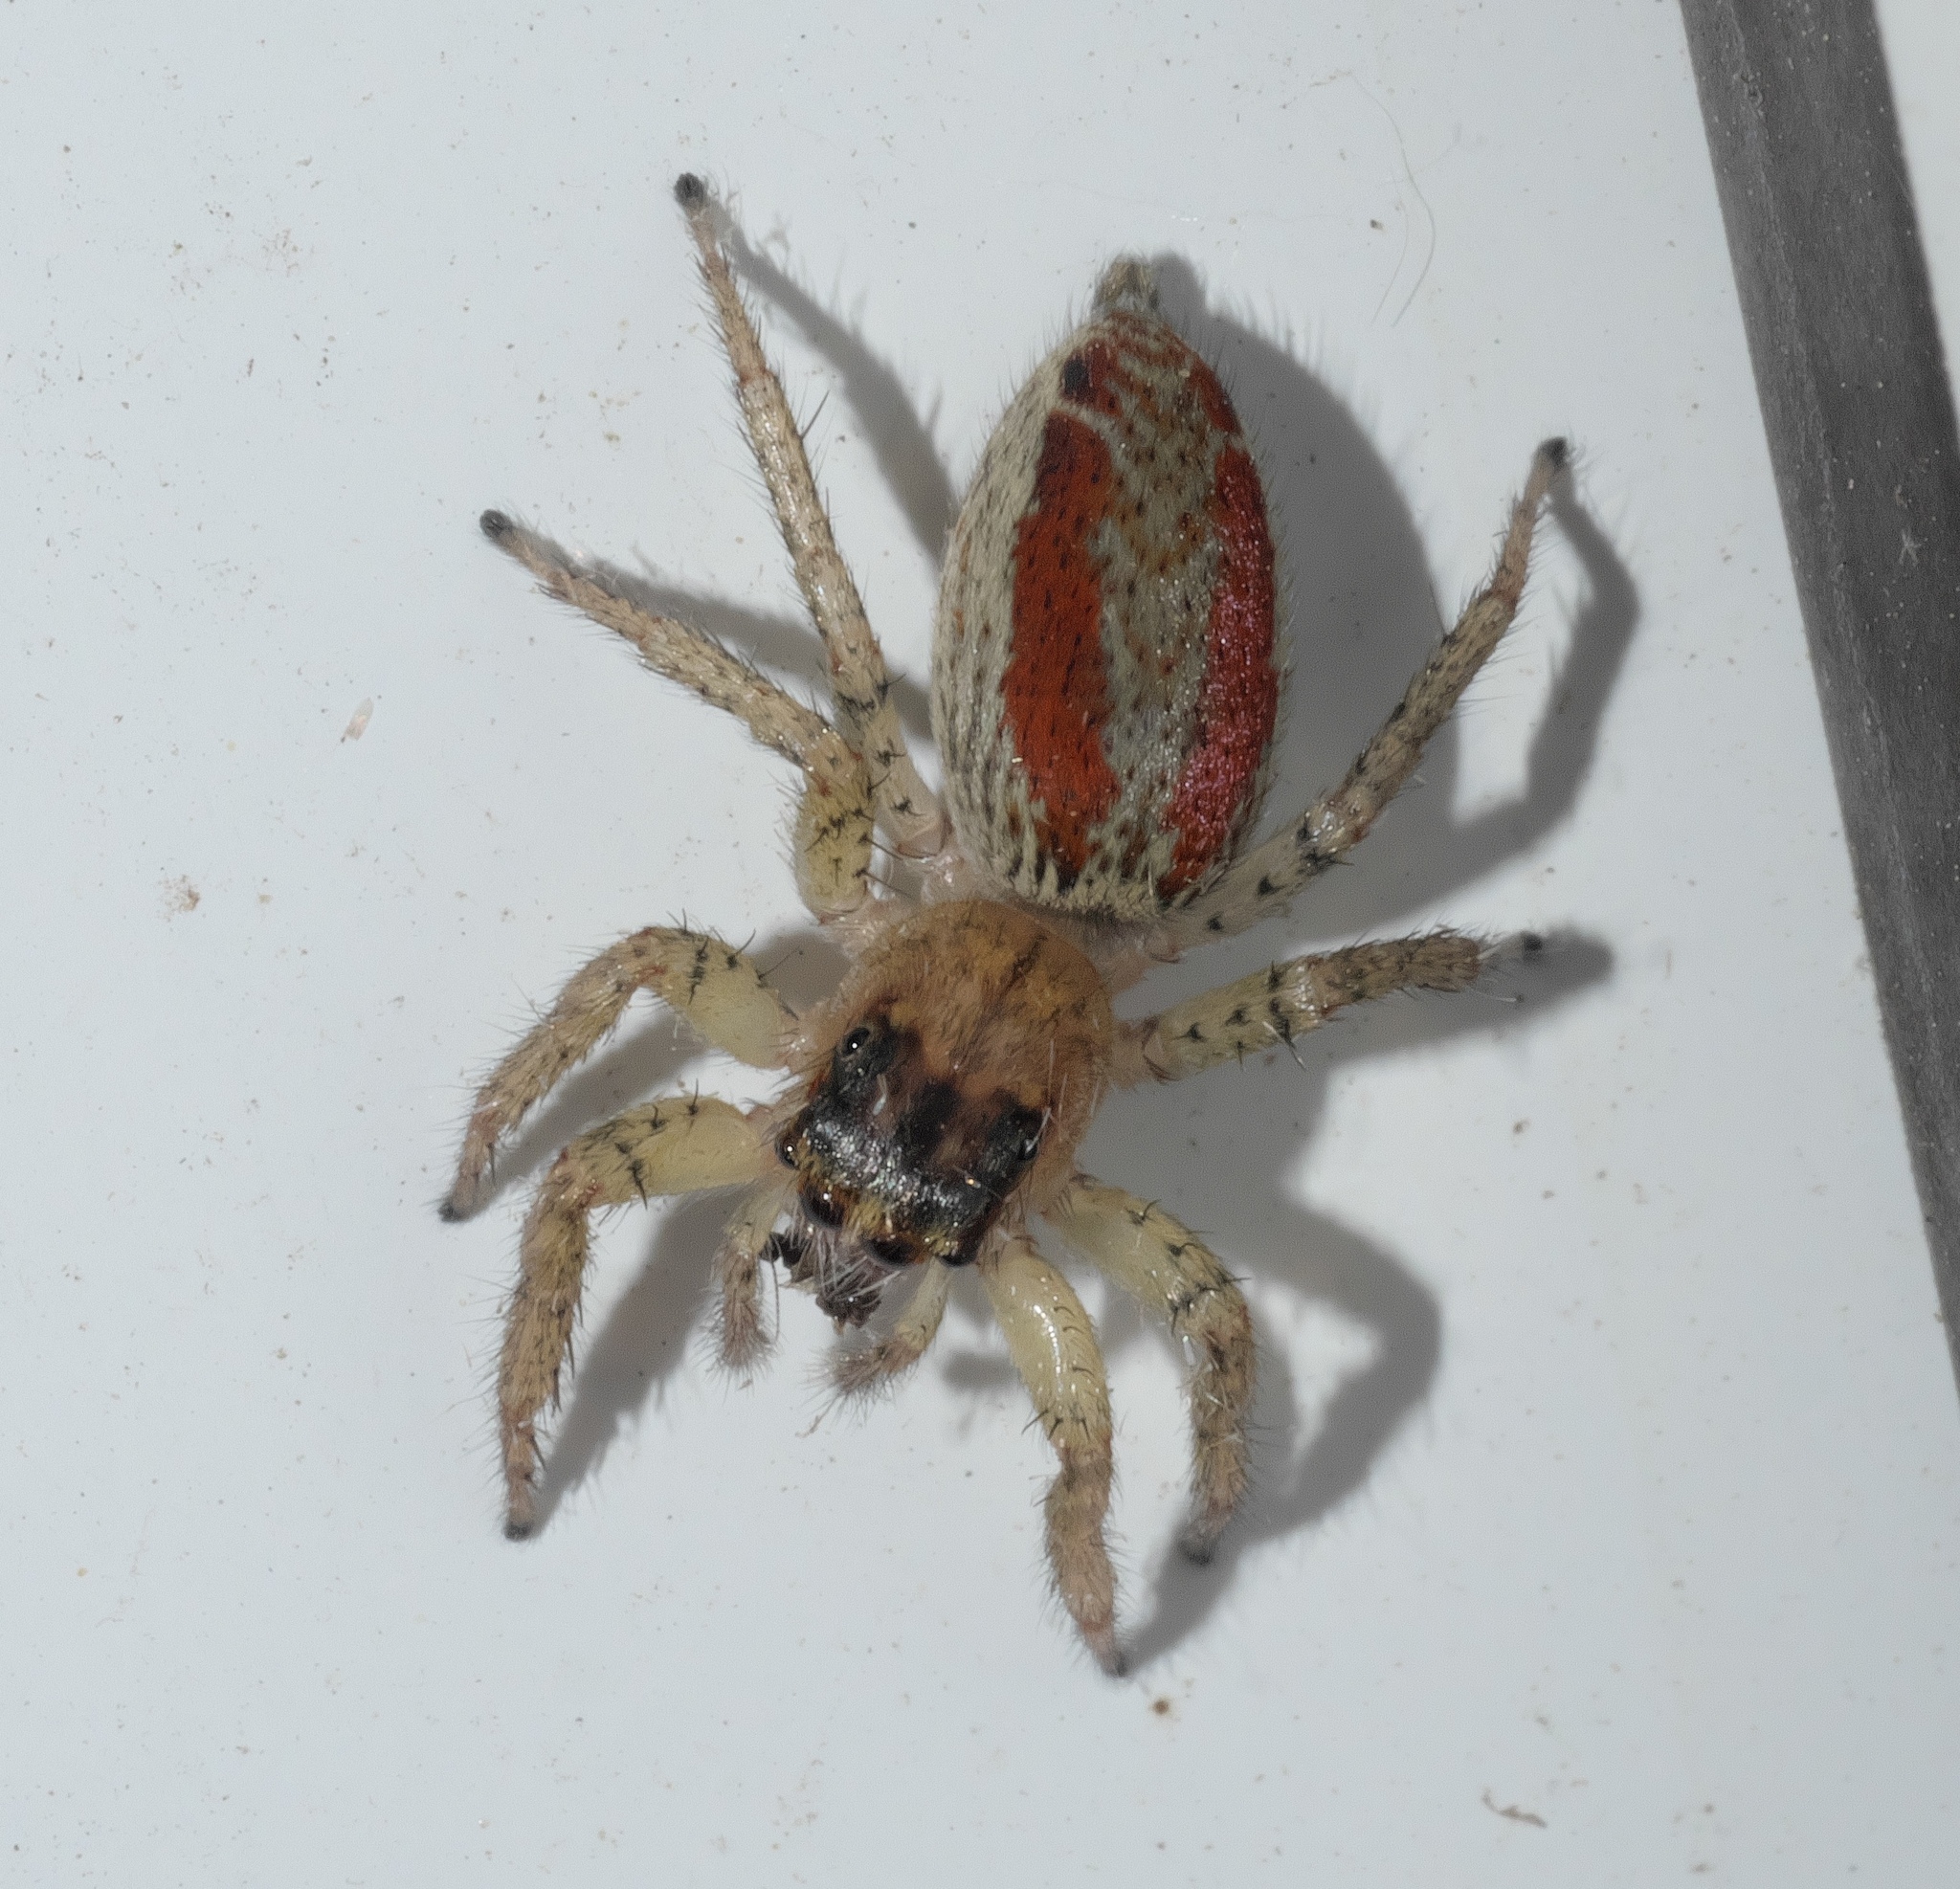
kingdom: Animalia
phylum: Arthropoda
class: Arachnida
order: Araneae
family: Salticidae
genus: Maevia
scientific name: Maevia inclemens
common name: Dimorphic jumper
